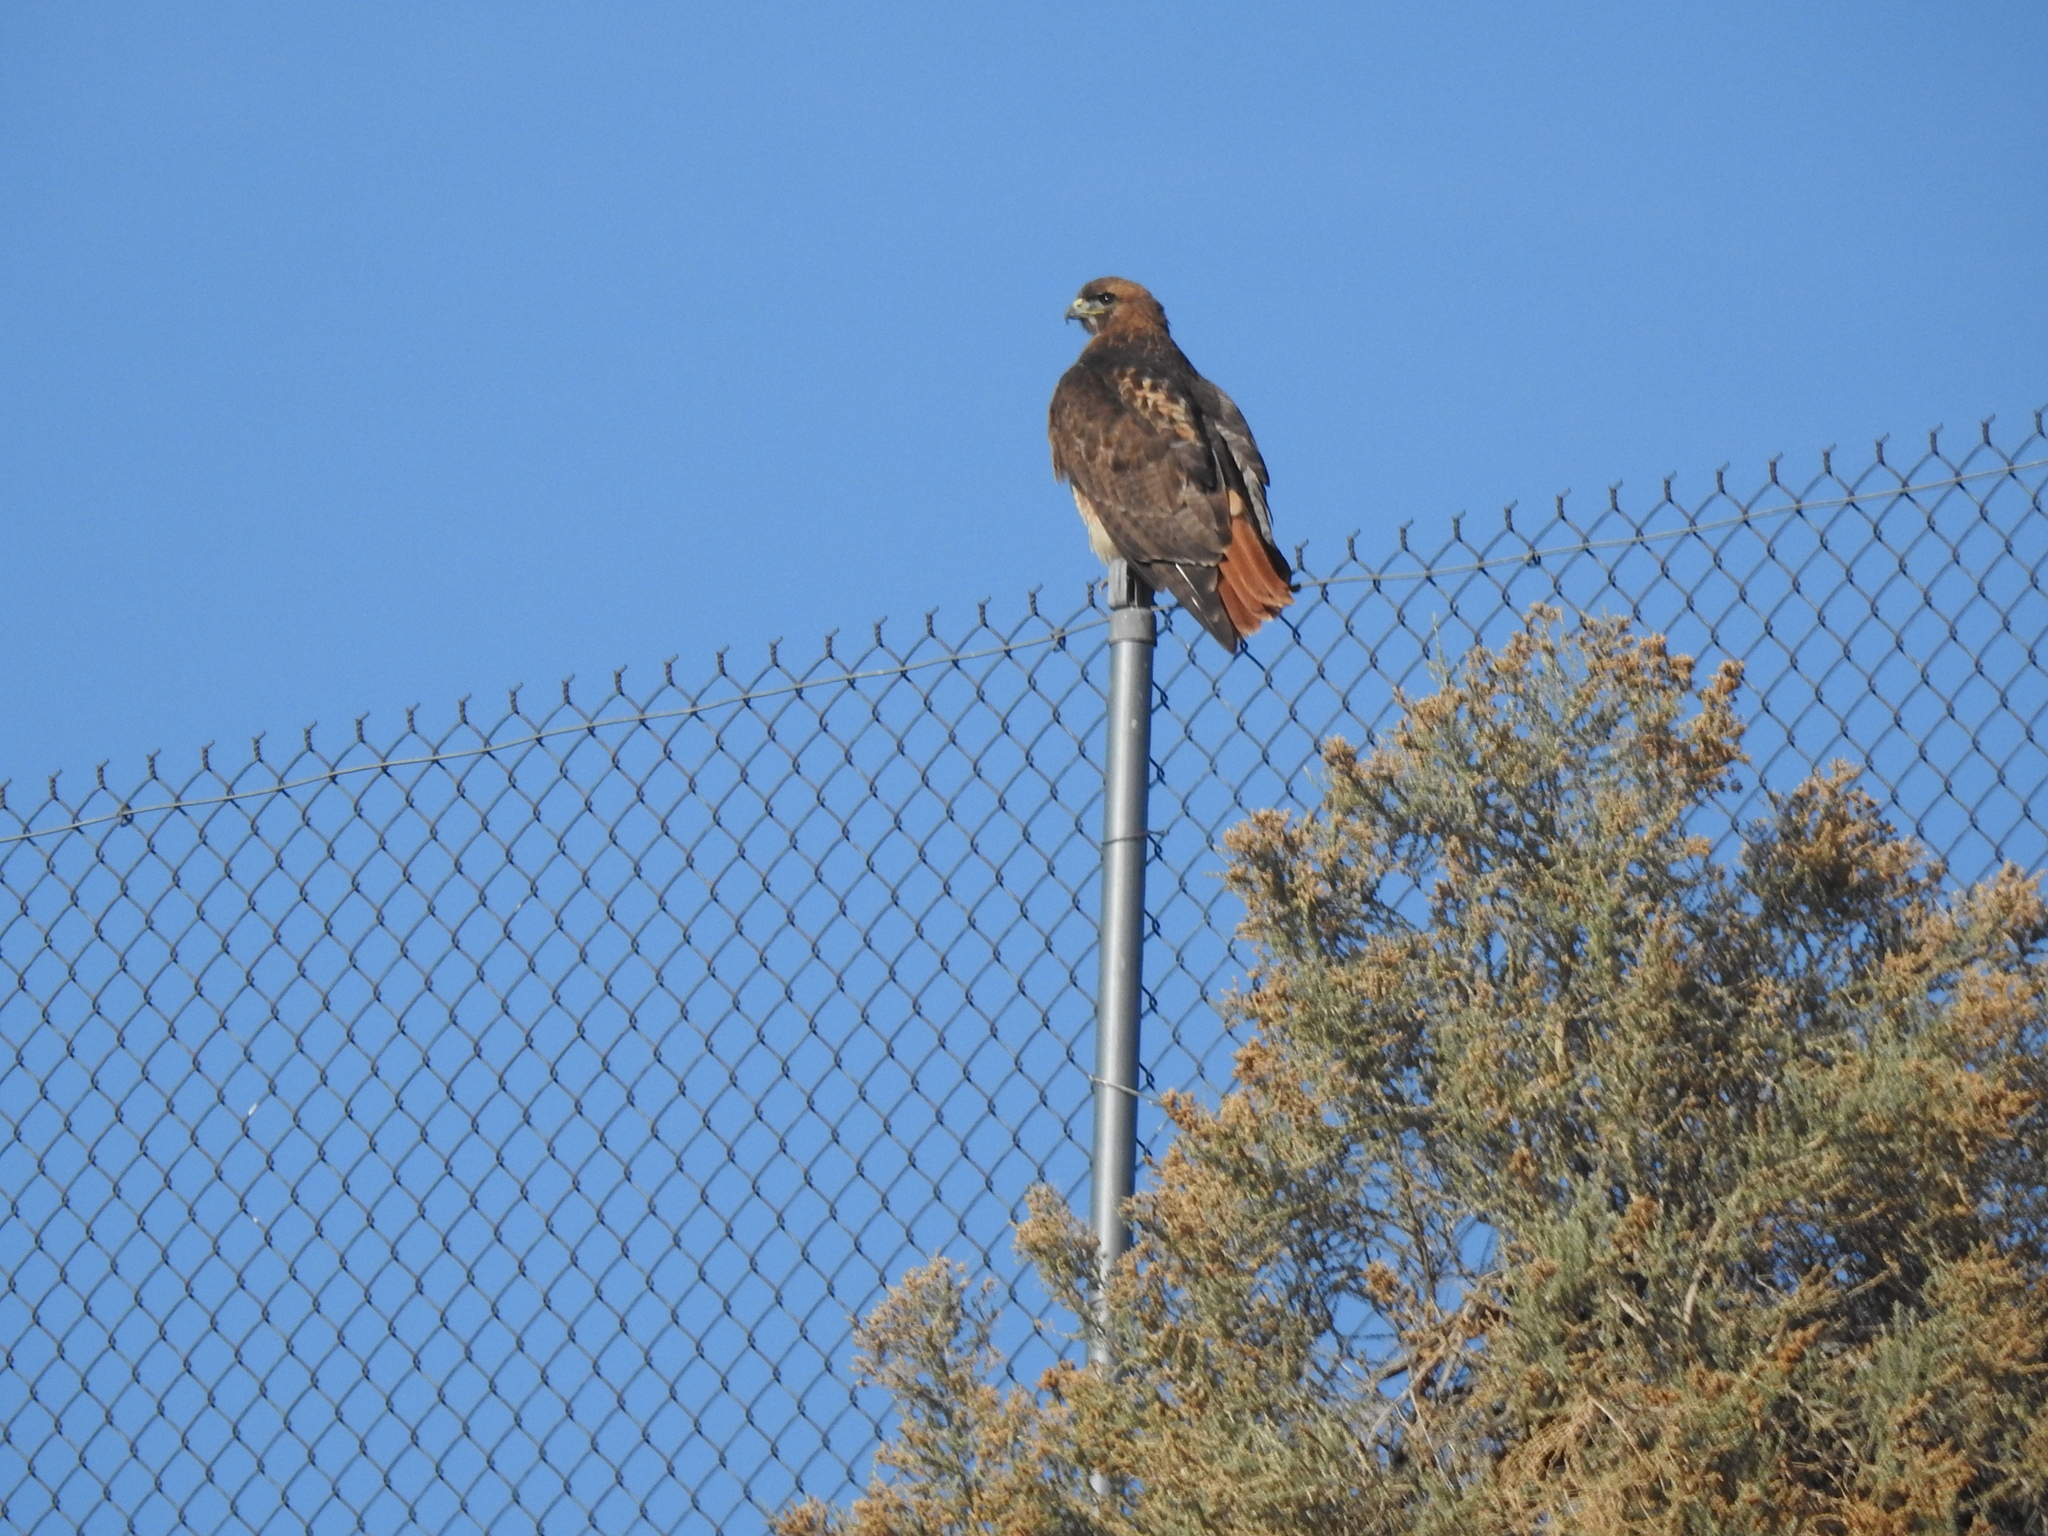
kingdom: Animalia
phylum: Chordata
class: Aves
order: Accipitriformes
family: Accipitridae
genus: Buteo
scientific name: Buteo jamaicensis
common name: Red-tailed hawk
